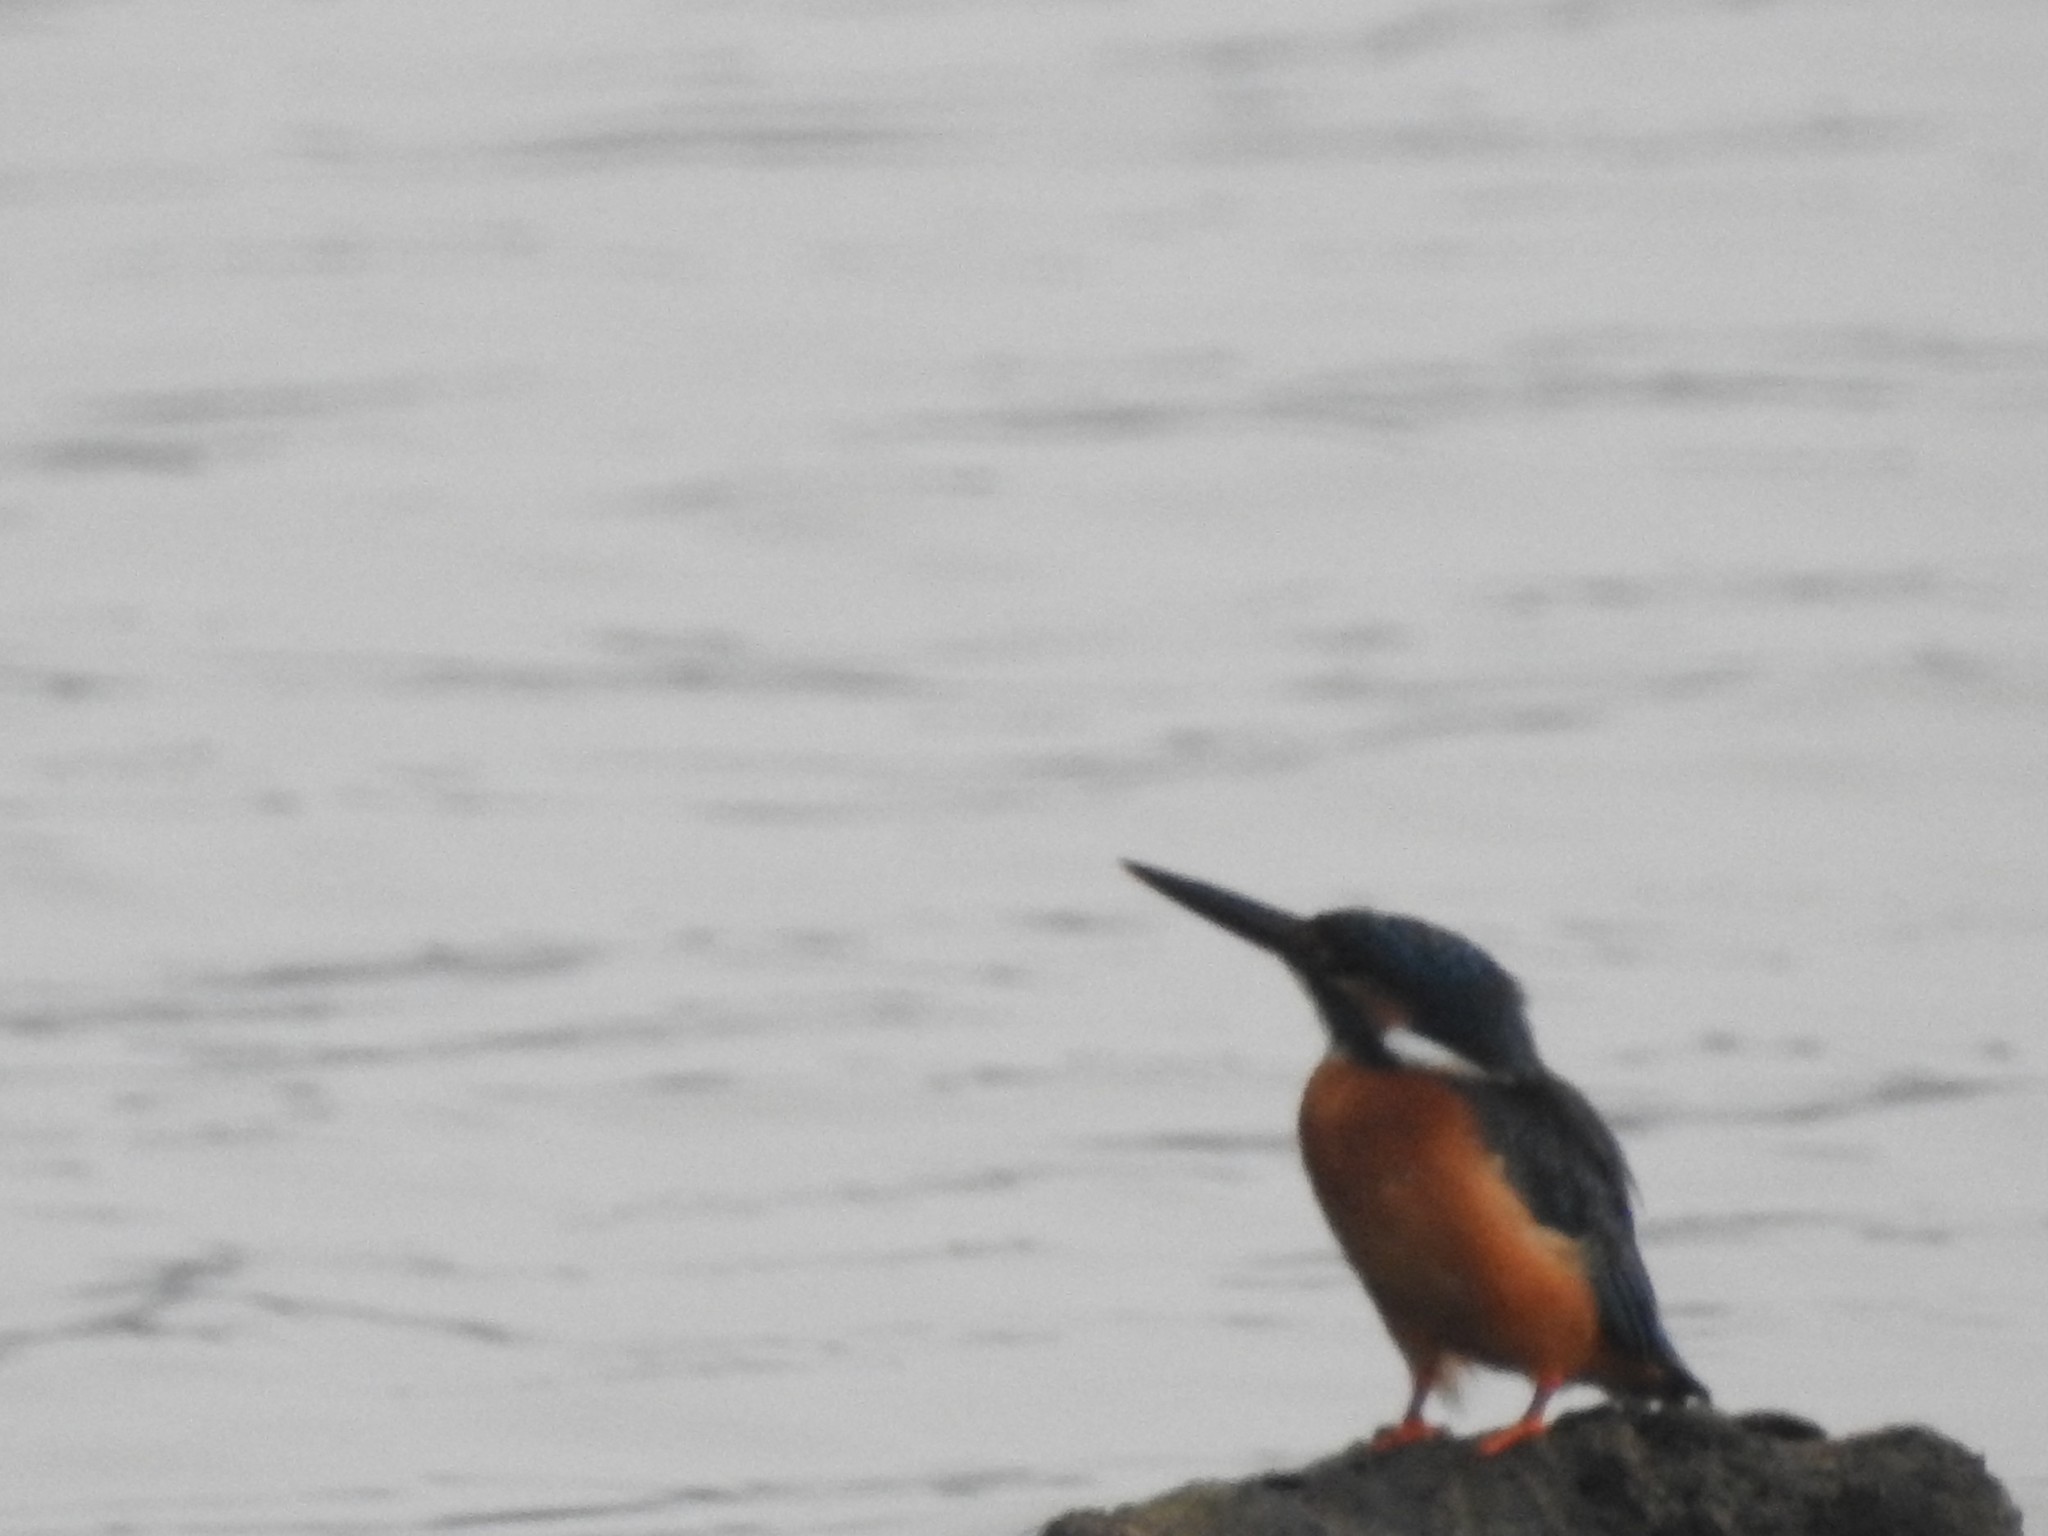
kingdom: Animalia
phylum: Chordata
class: Aves
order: Coraciiformes
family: Alcedinidae
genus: Alcedo
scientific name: Alcedo atthis
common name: Common kingfisher
